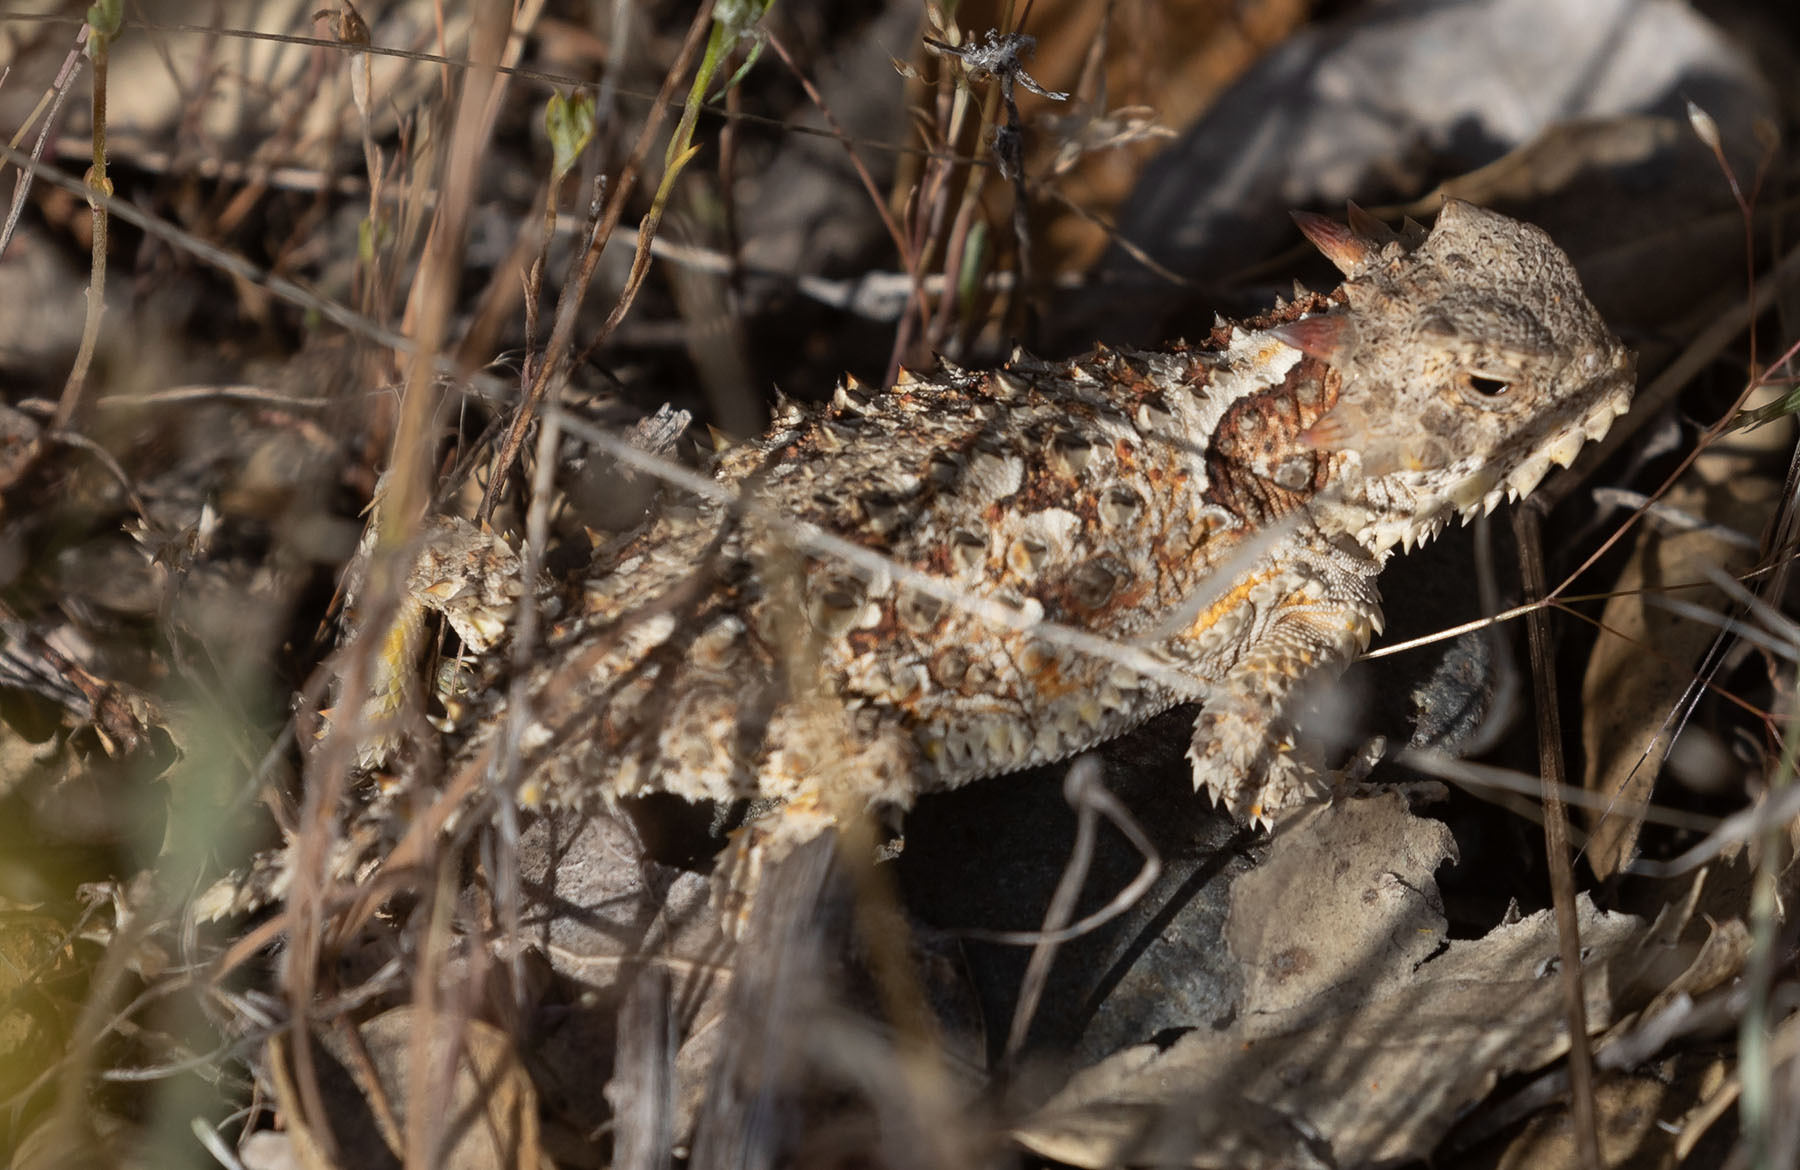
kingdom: Animalia
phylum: Chordata
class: Squamata
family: Phrynosomatidae
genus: Phrynosoma
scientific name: Phrynosoma blainvillii
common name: San diego horned lizard
